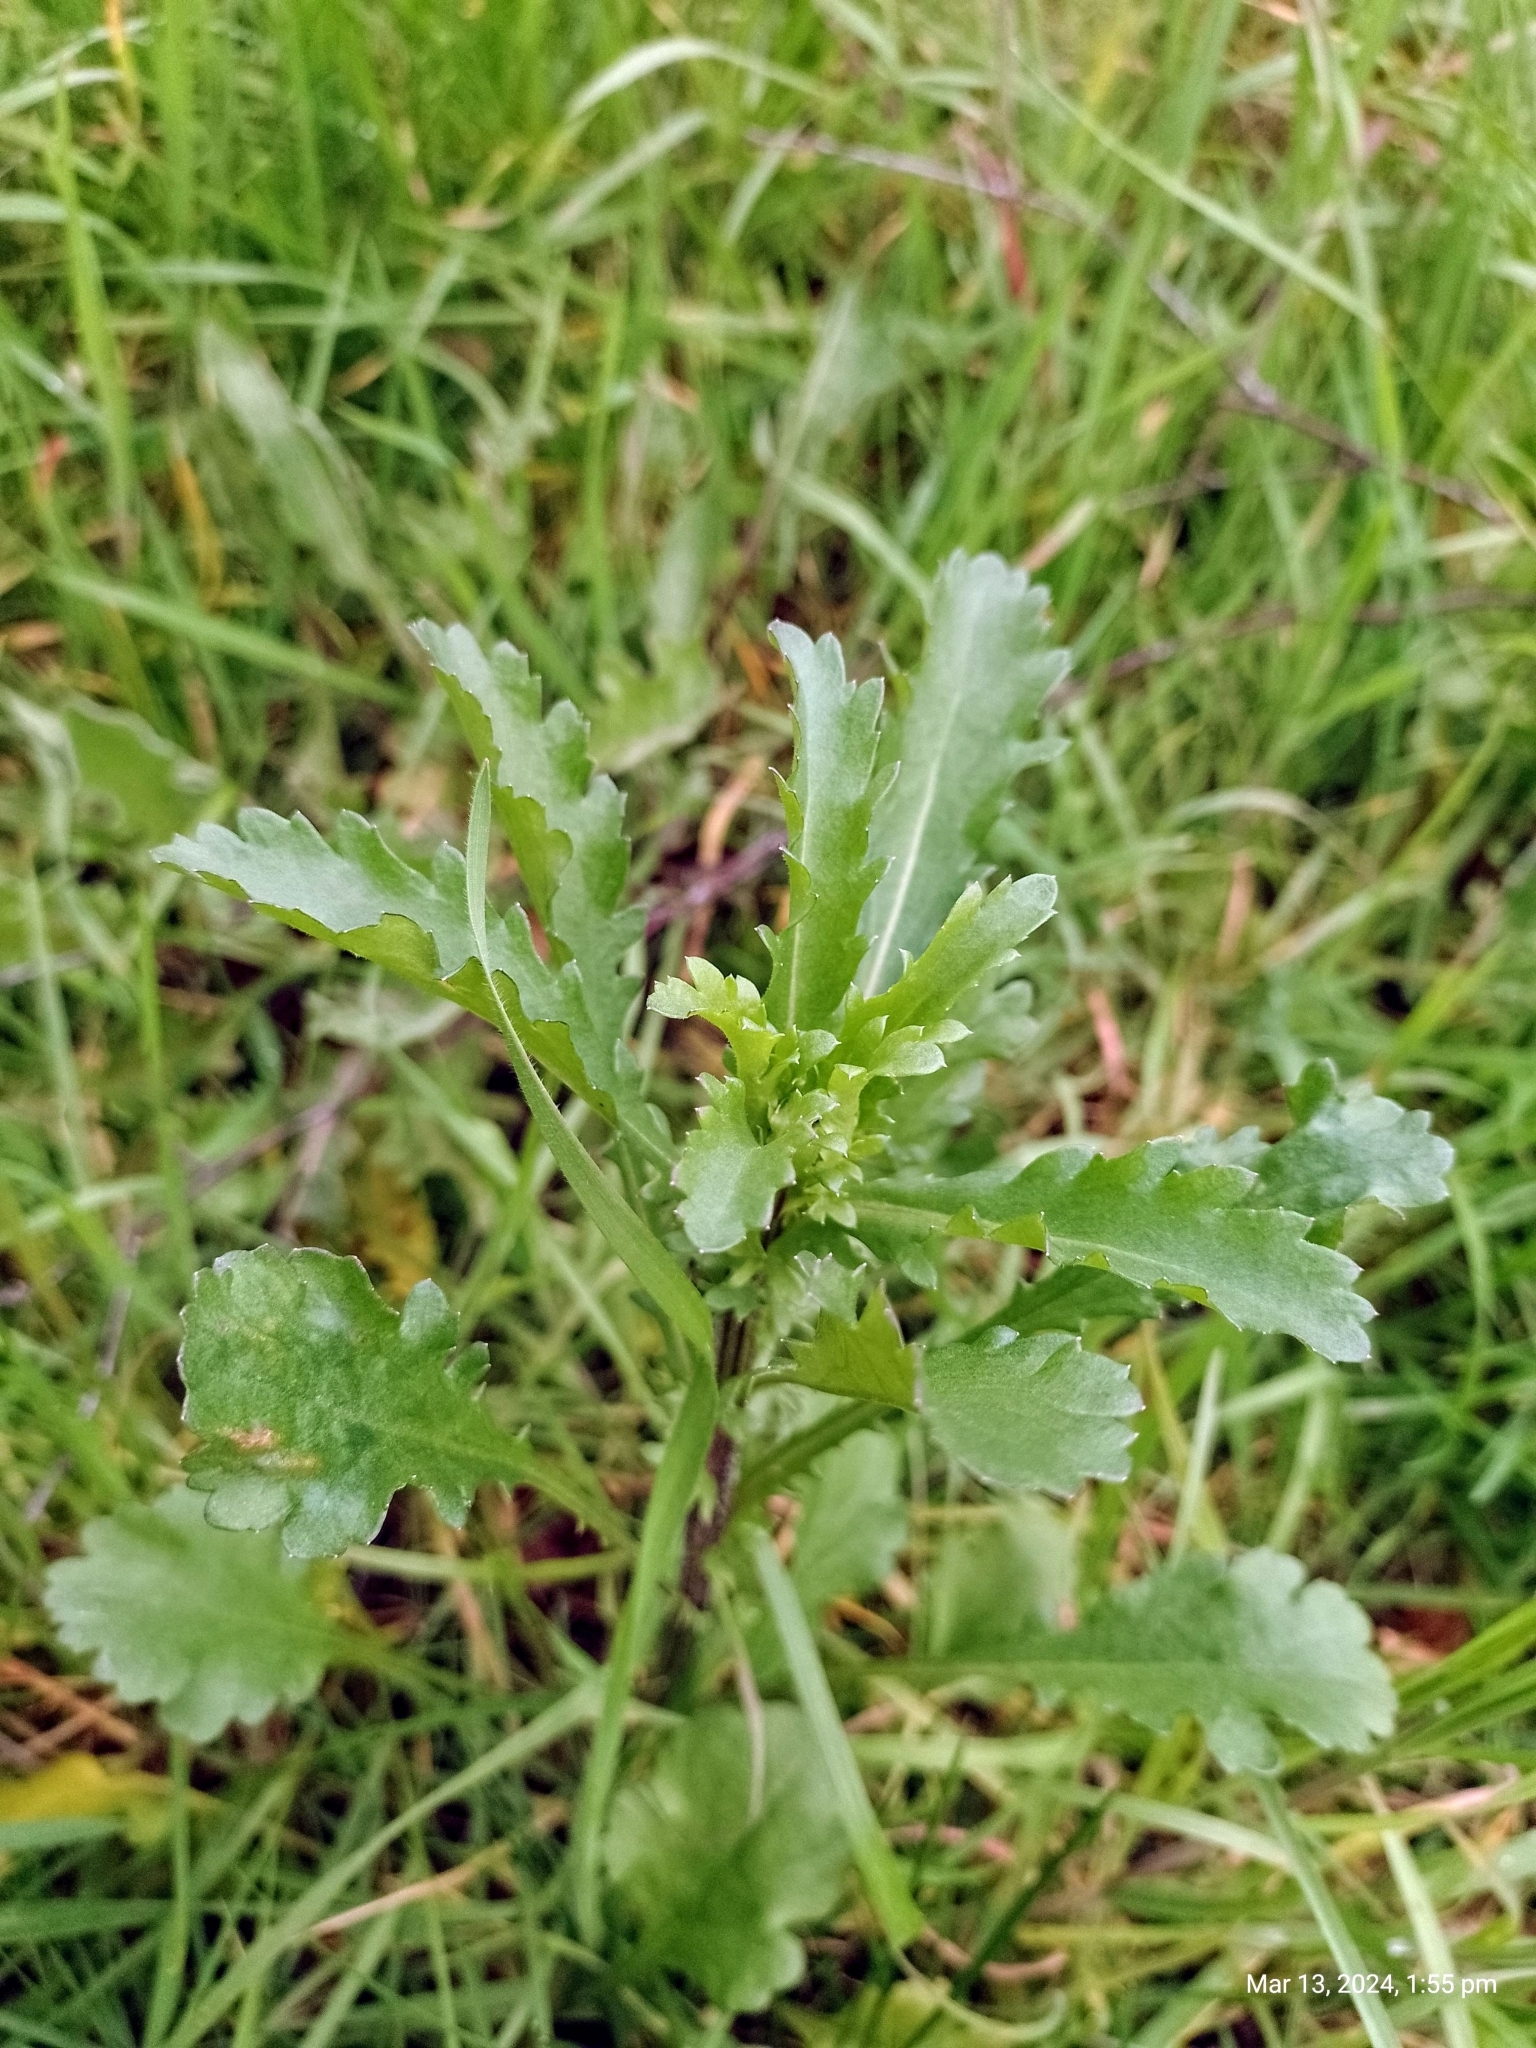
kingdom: Plantae
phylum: Tracheophyta
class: Magnoliopsida
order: Asterales
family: Asteraceae
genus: Leucanthemum
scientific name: Leucanthemum vulgare
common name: Oxeye daisy
